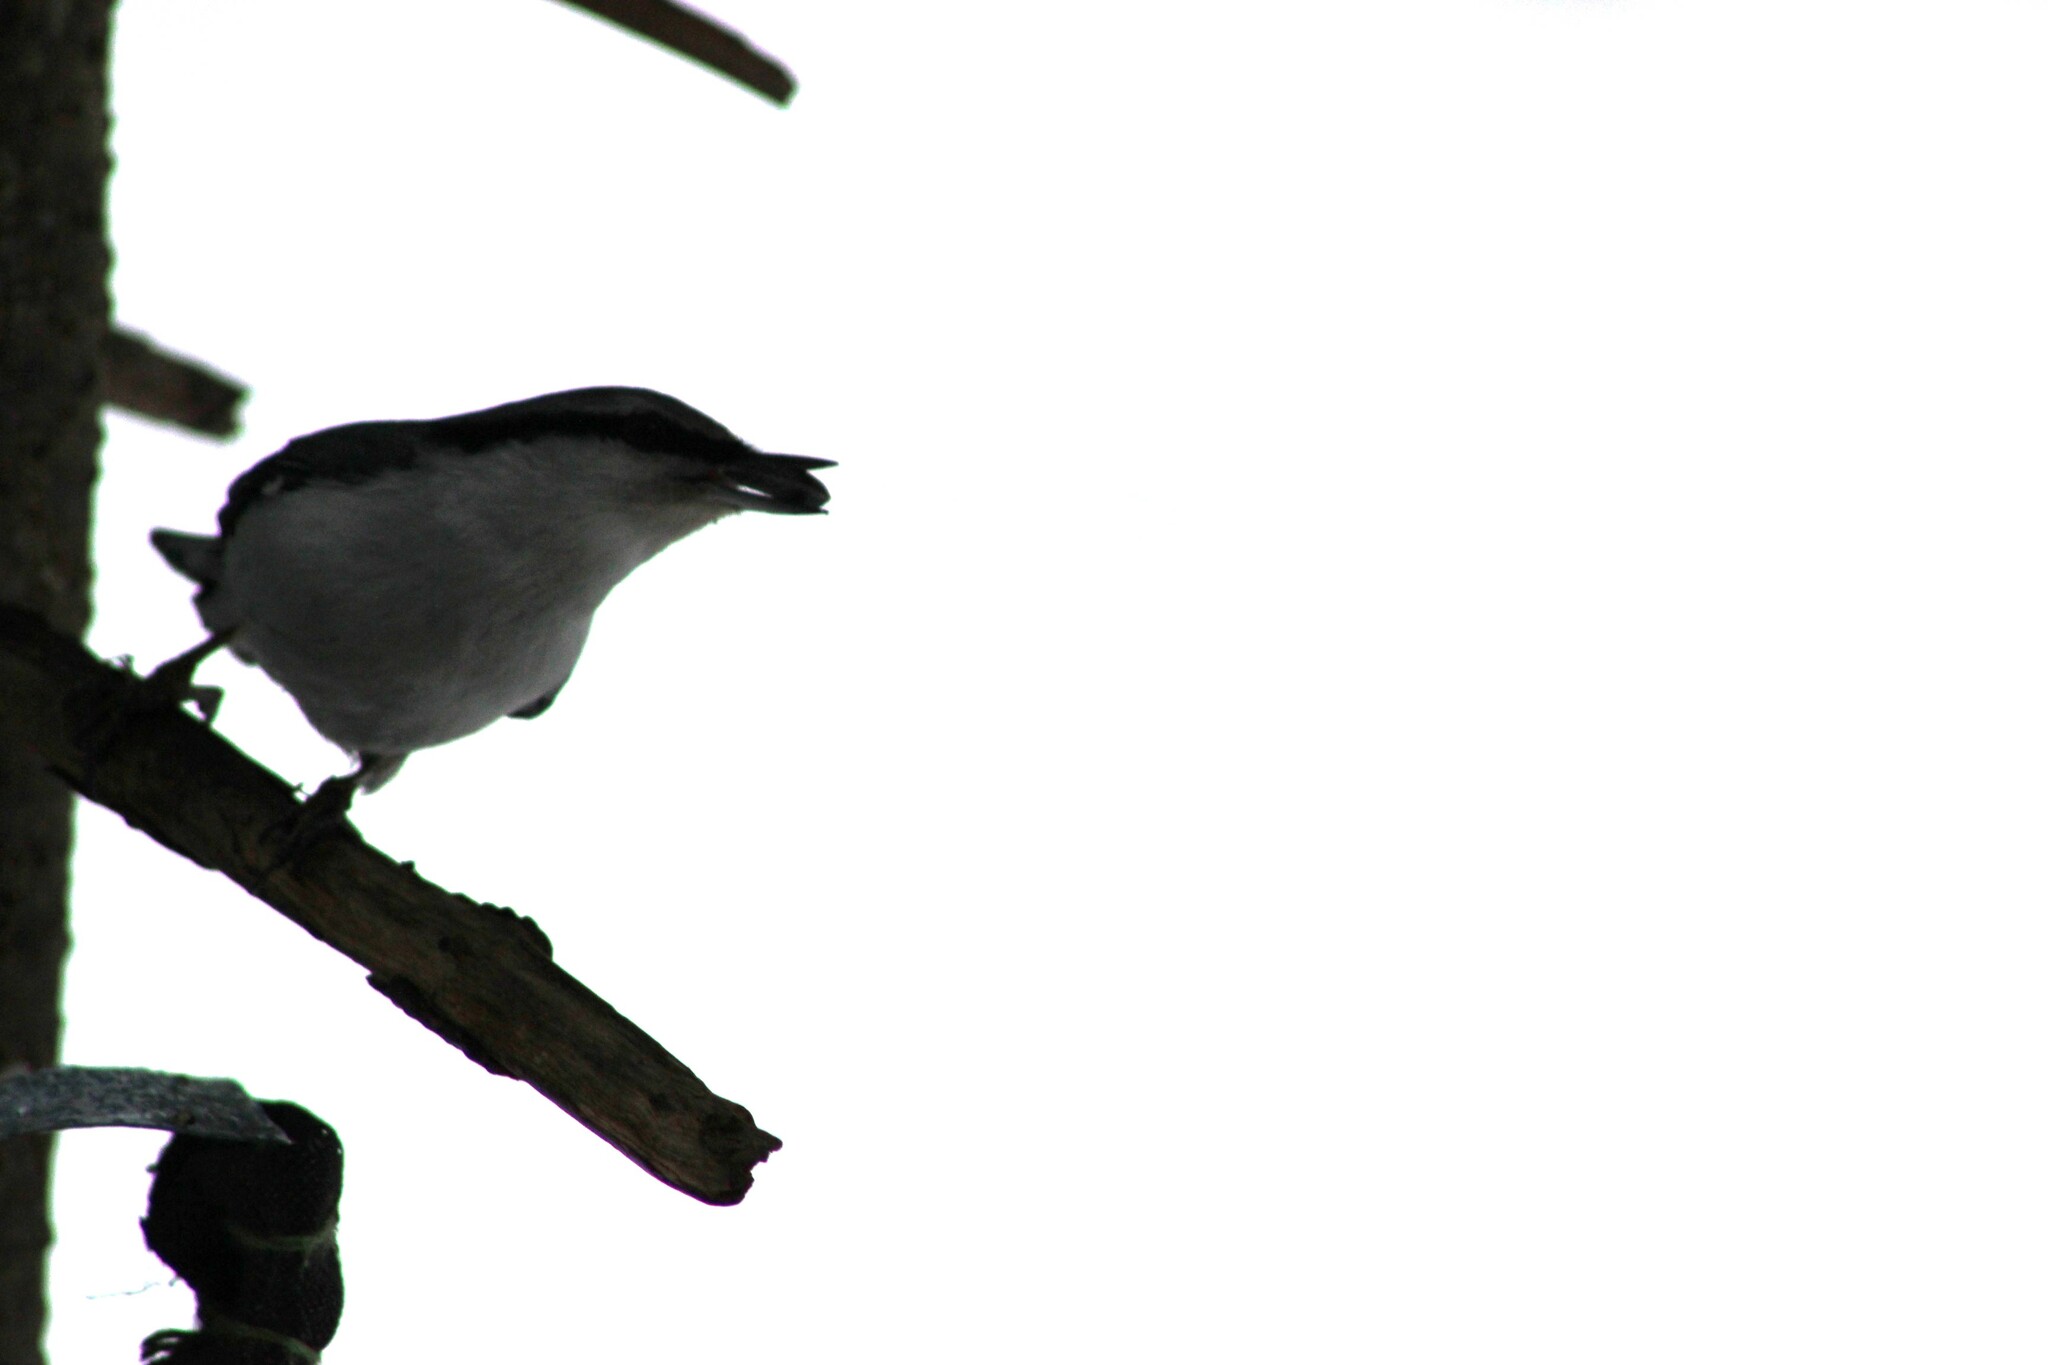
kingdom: Animalia
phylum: Chordata
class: Aves
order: Passeriformes
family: Sittidae
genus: Sitta
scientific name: Sitta europaea
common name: Eurasian nuthatch
